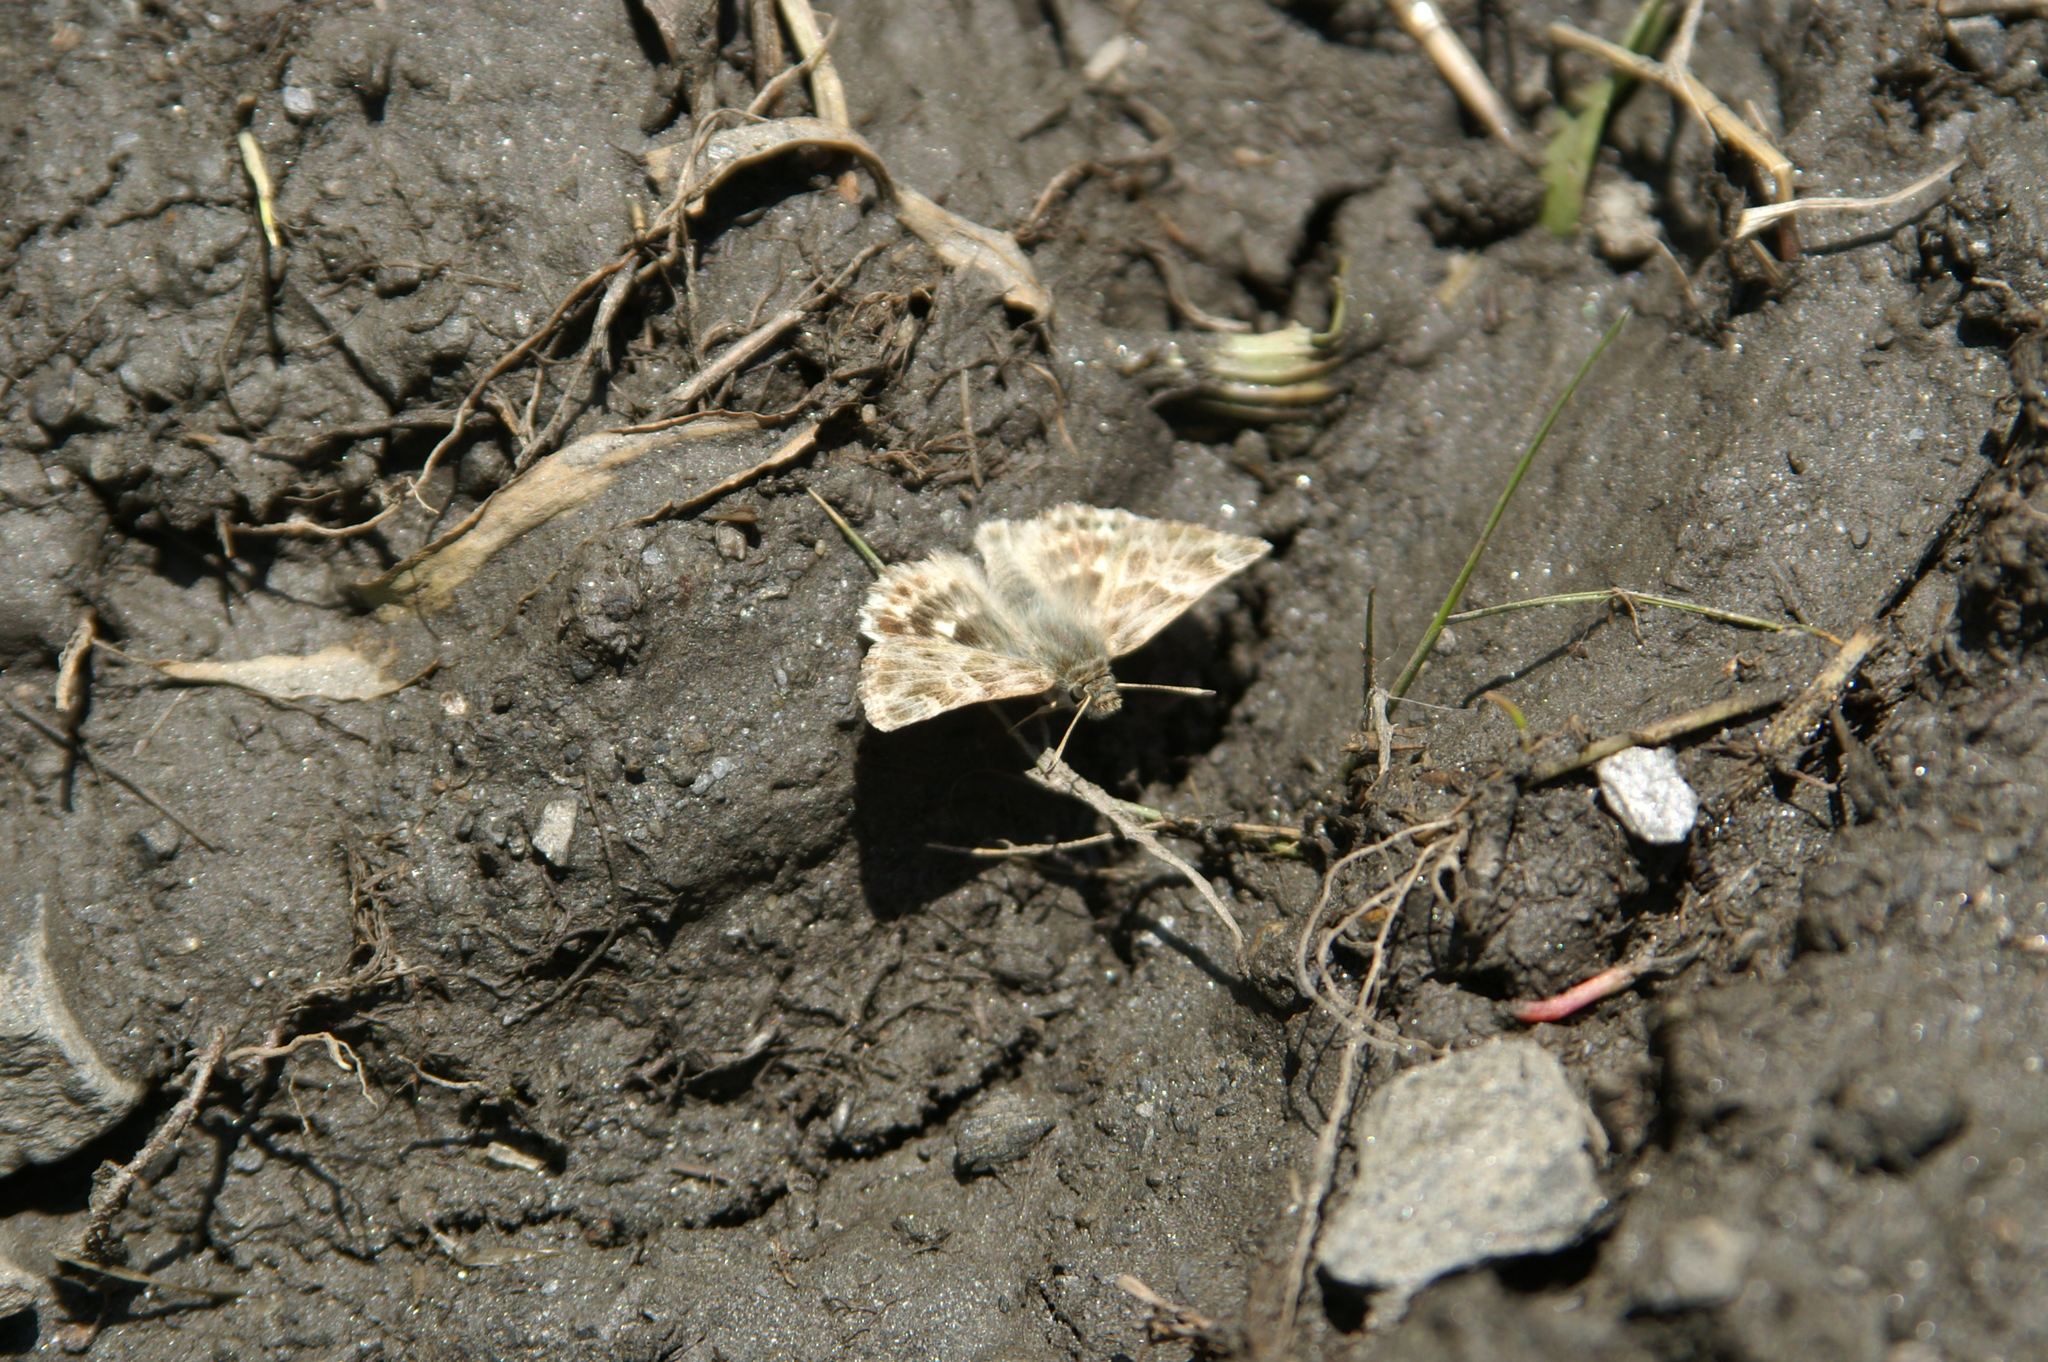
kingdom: Animalia
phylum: Arthropoda
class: Insecta
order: Lepidoptera
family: Hesperiidae
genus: Syrichtus
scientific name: Syrichtus Muschampia baeticus
